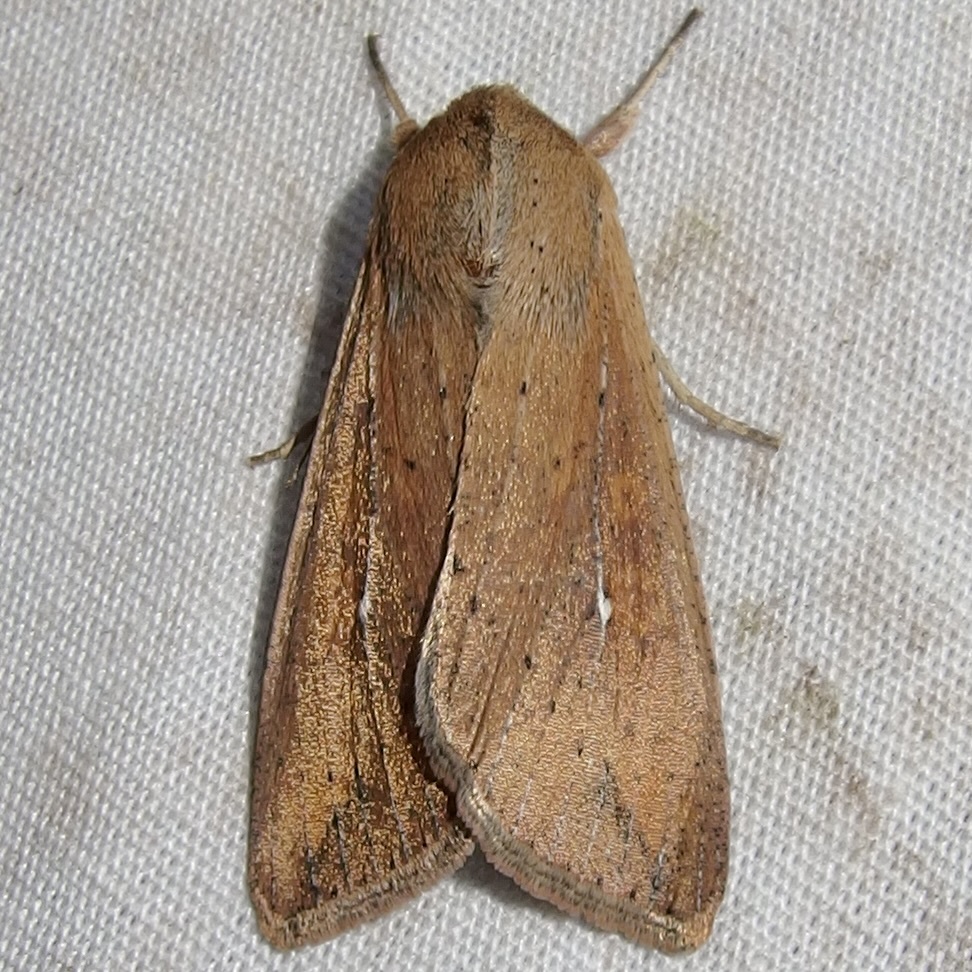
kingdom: Animalia
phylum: Arthropoda
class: Insecta
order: Lepidoptera
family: Noctuidae
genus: Mythimna
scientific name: Mythimna unipuncta
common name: White-speck
